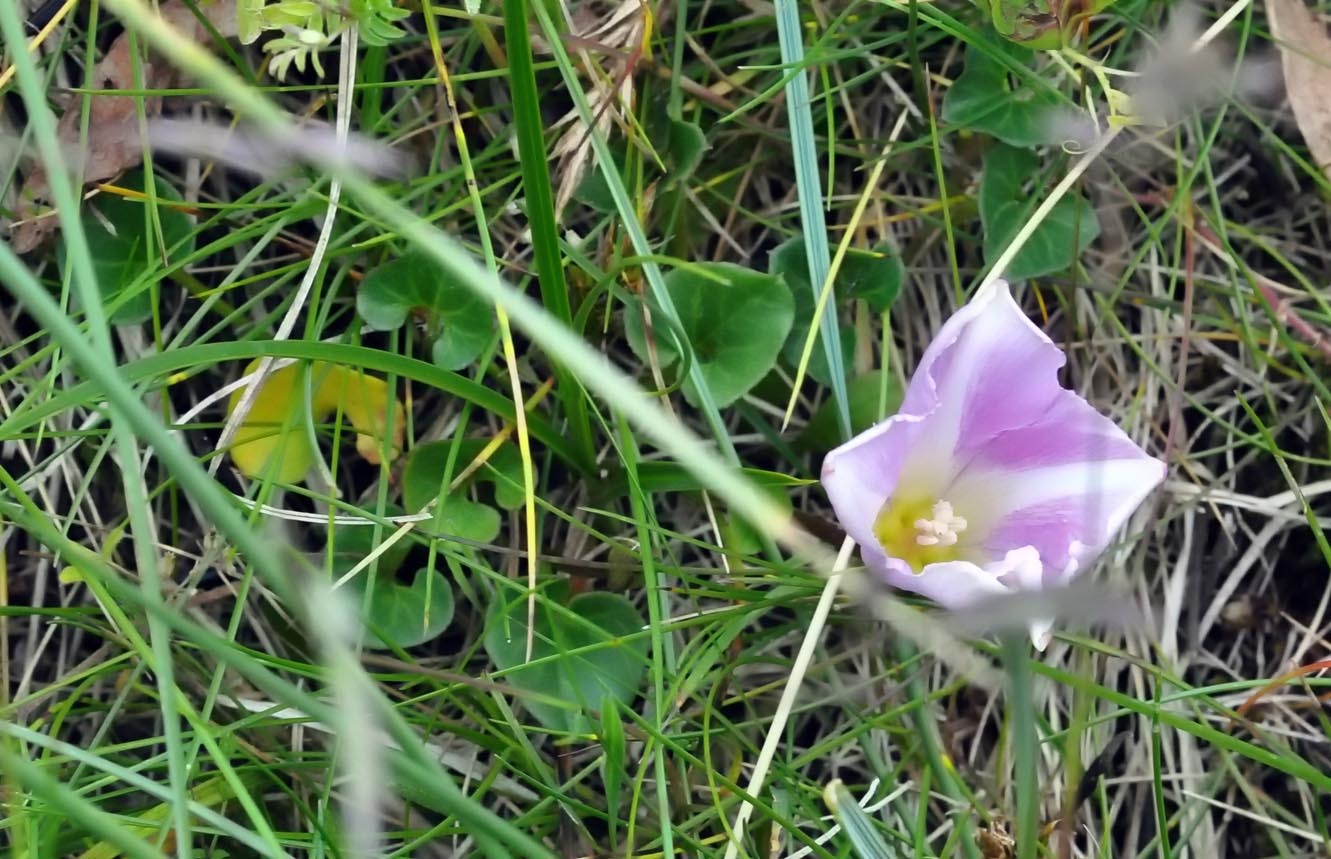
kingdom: Plantae
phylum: Tracheophyta
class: Magnoliopsida
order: Solanales
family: Convolvulaceae
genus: Calystegia
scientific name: Calystegia soldanella
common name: Sea bindweed
